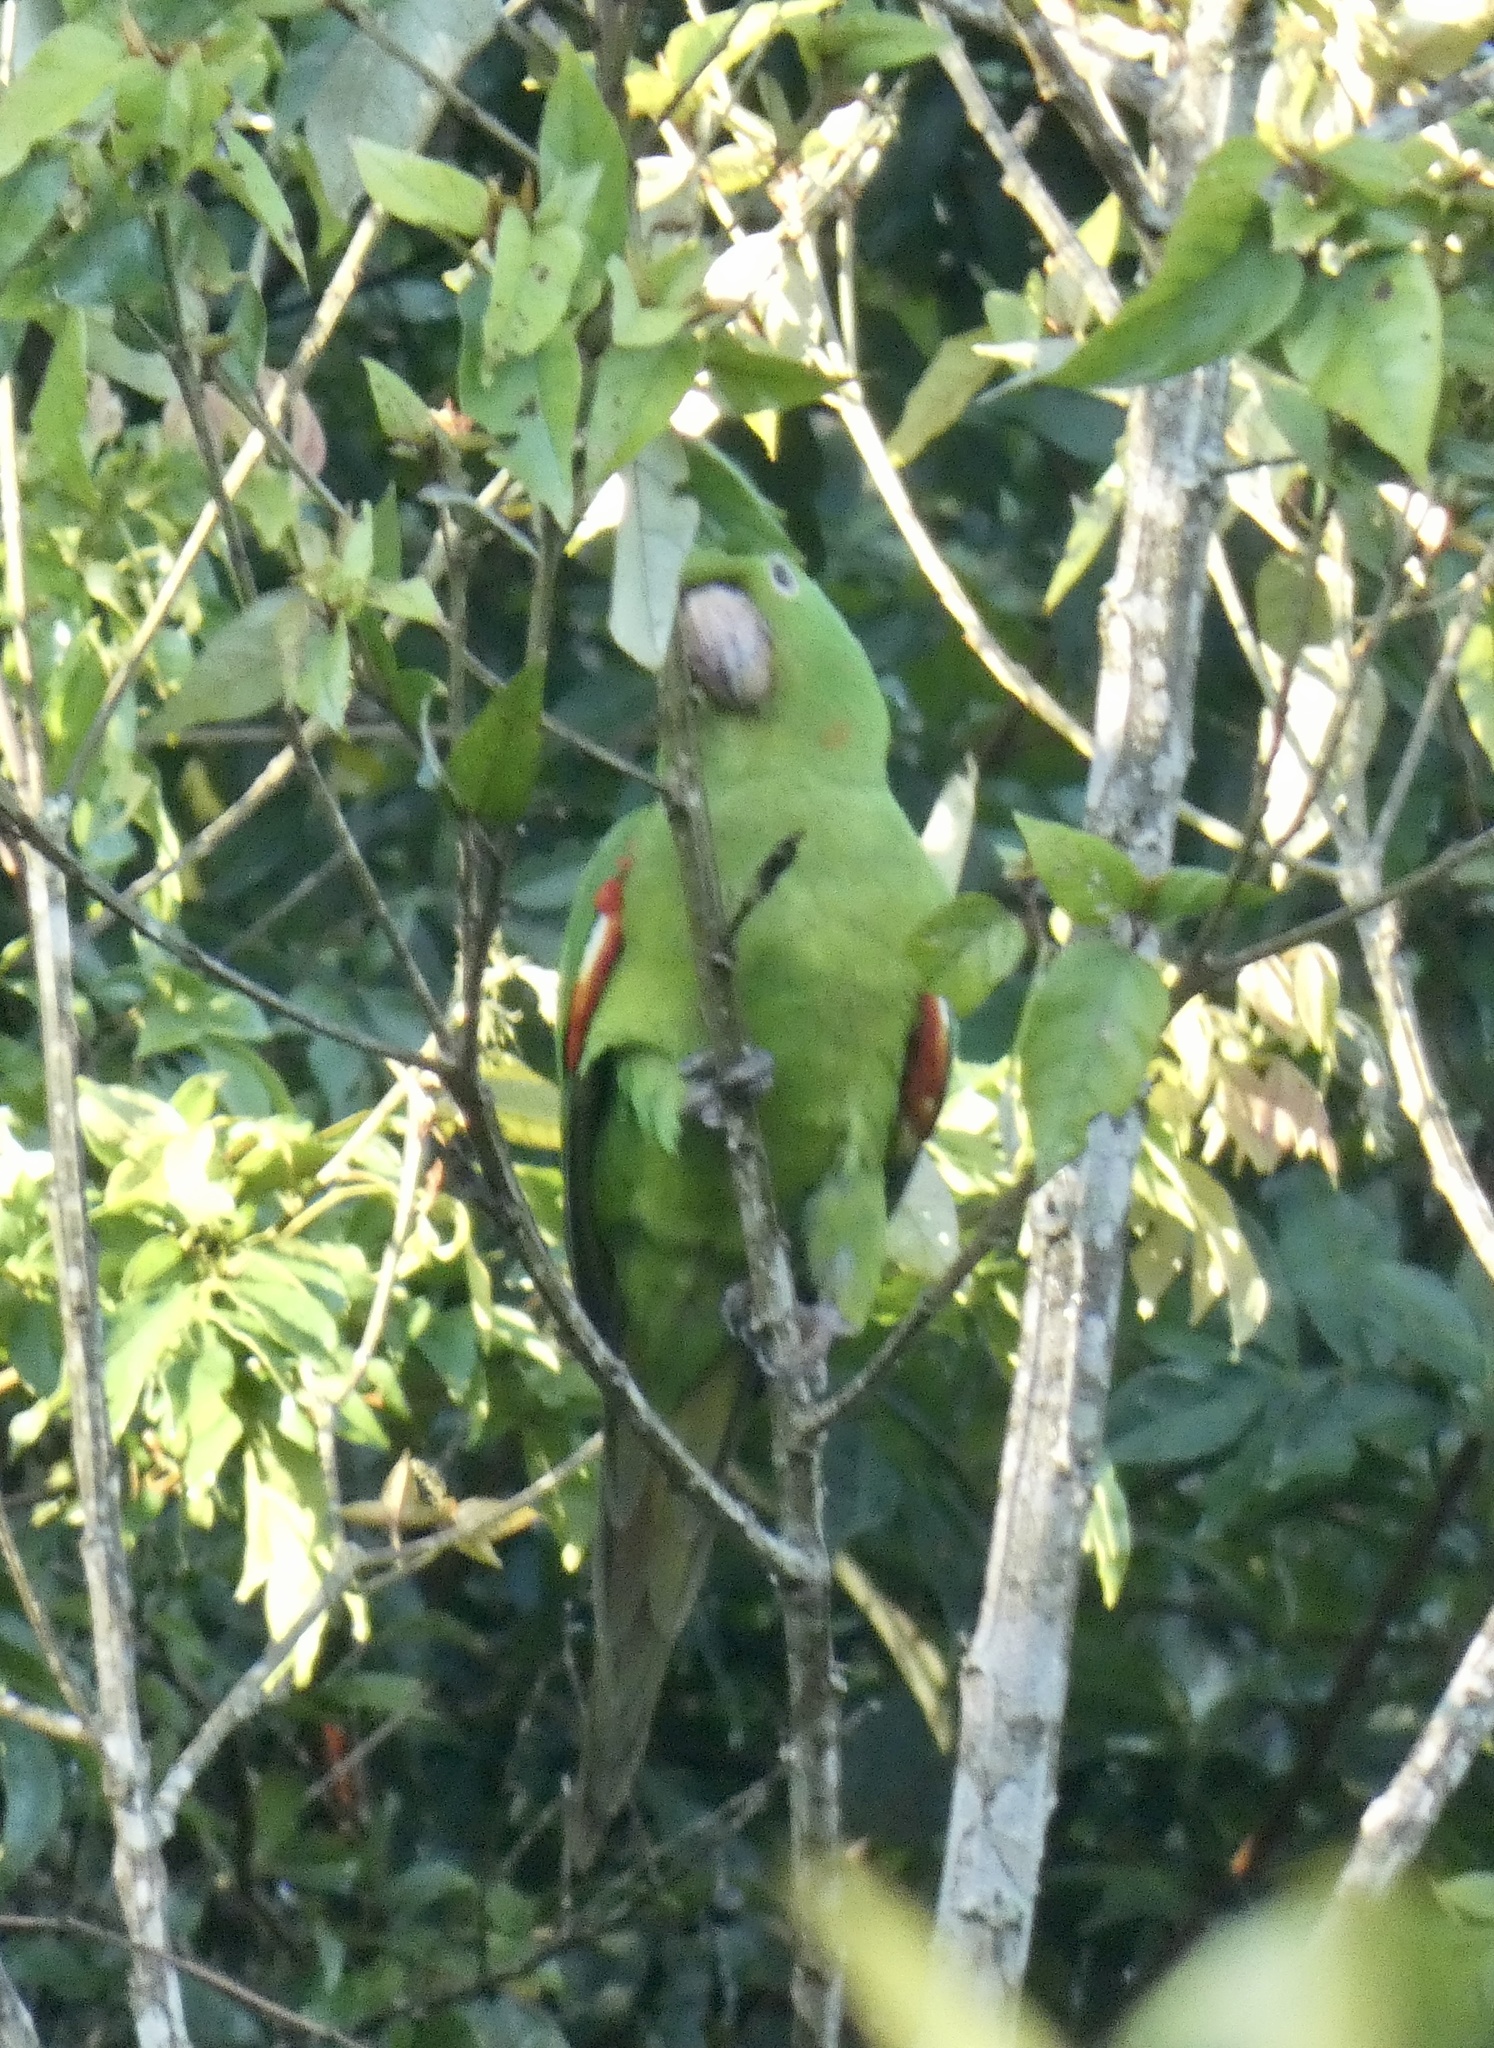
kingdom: Animalia
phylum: Chordata
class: Aves
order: Psittaciformes
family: Psittacidae
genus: Aratinga
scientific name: Aratinga leucophthalma
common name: White-eyed parakeet
